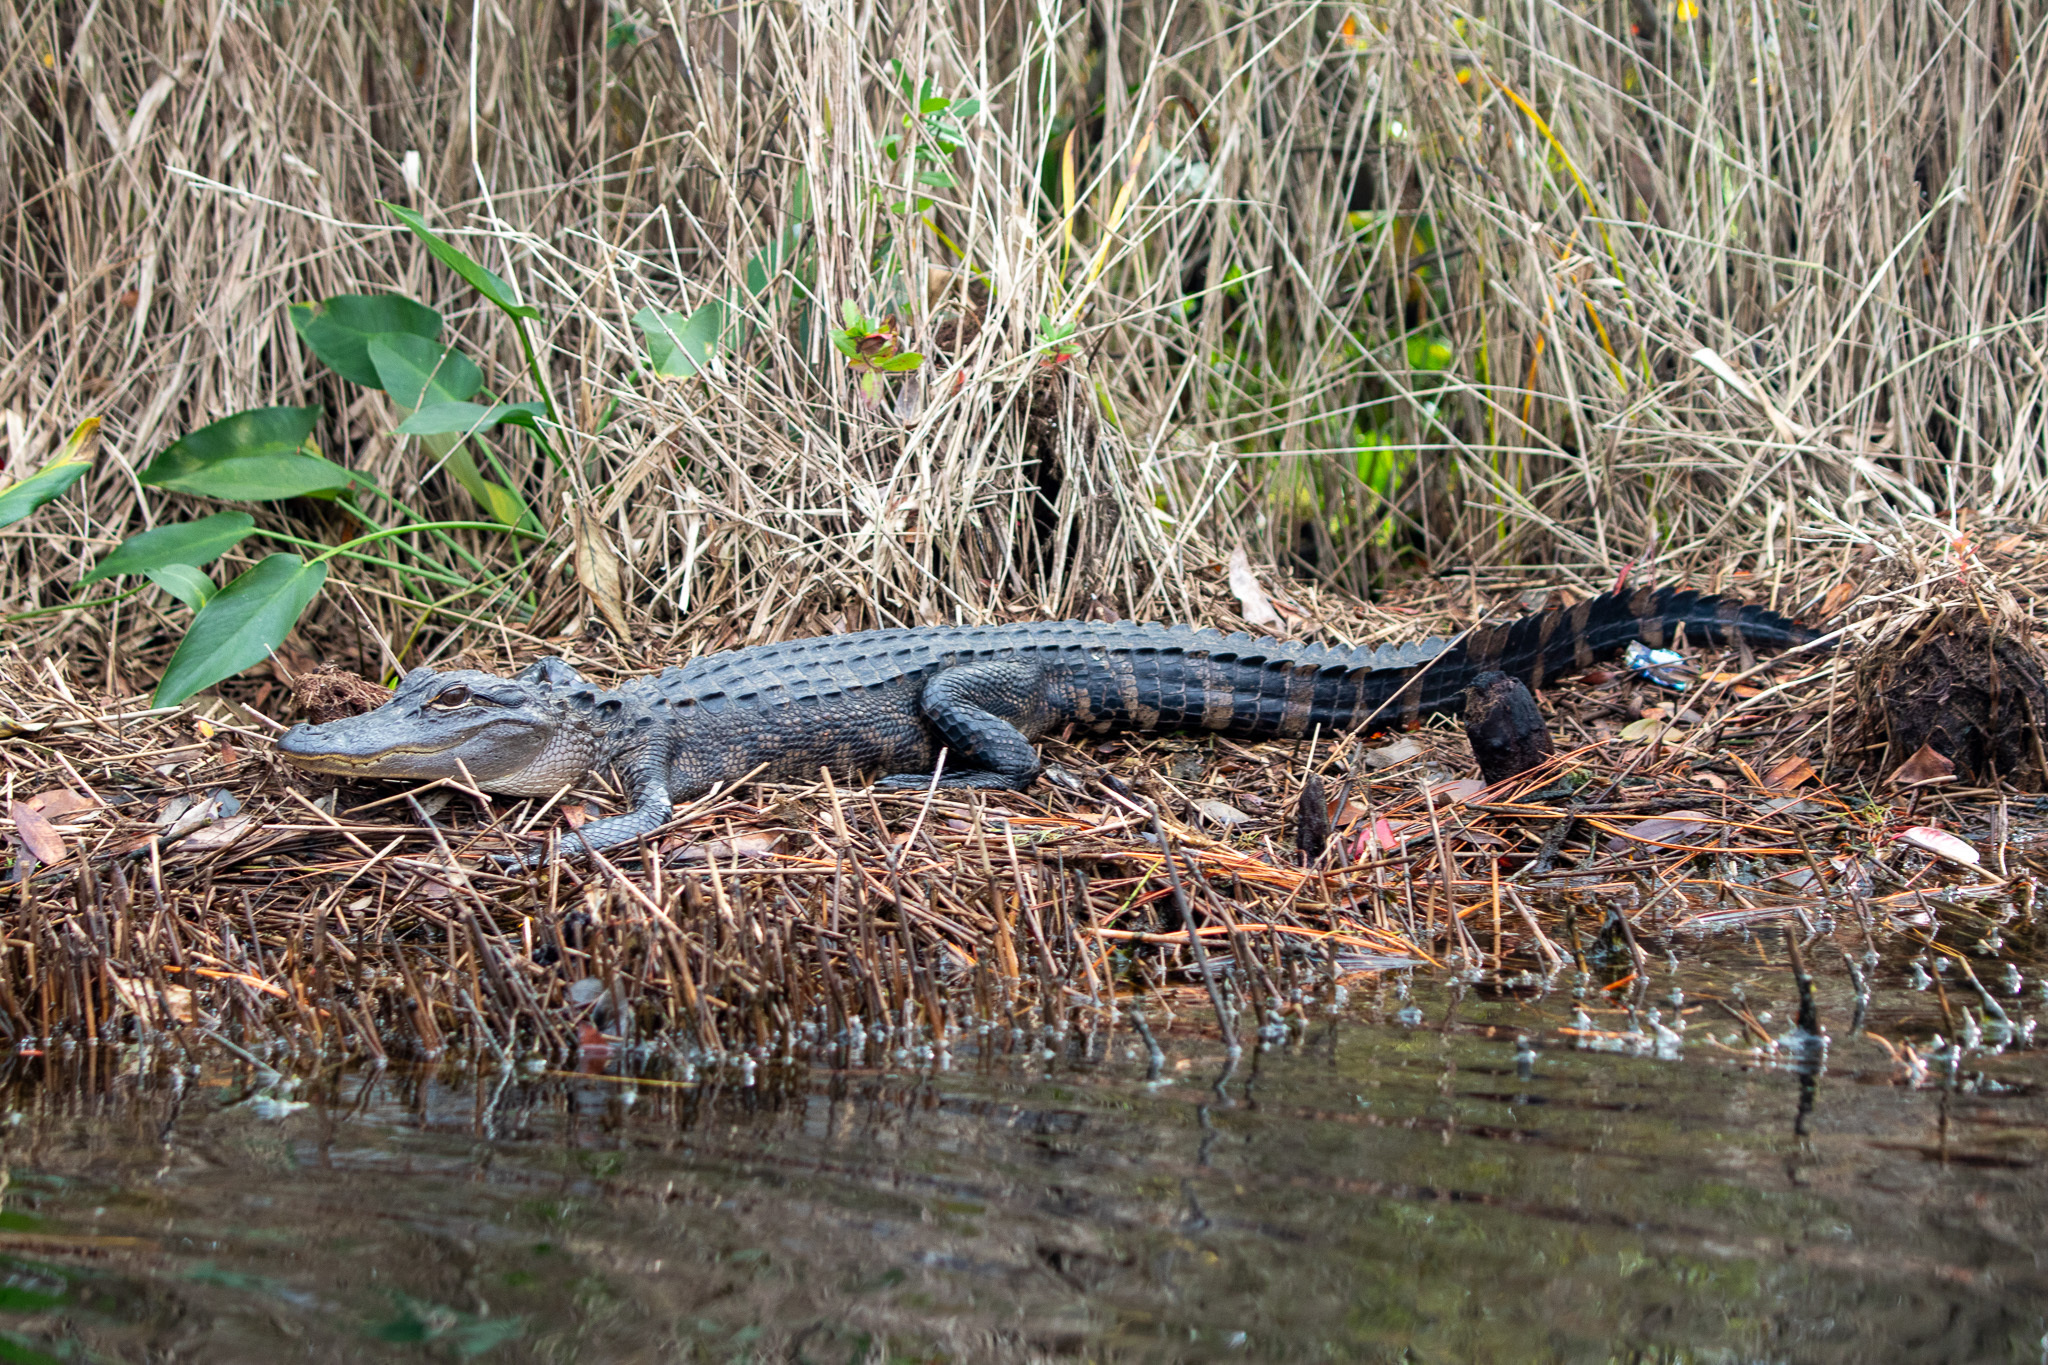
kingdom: Animalia
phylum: Chordata
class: Crocodylia
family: Alligatoridae
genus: Alligator
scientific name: Alligator mississippiensis
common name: American alligator
